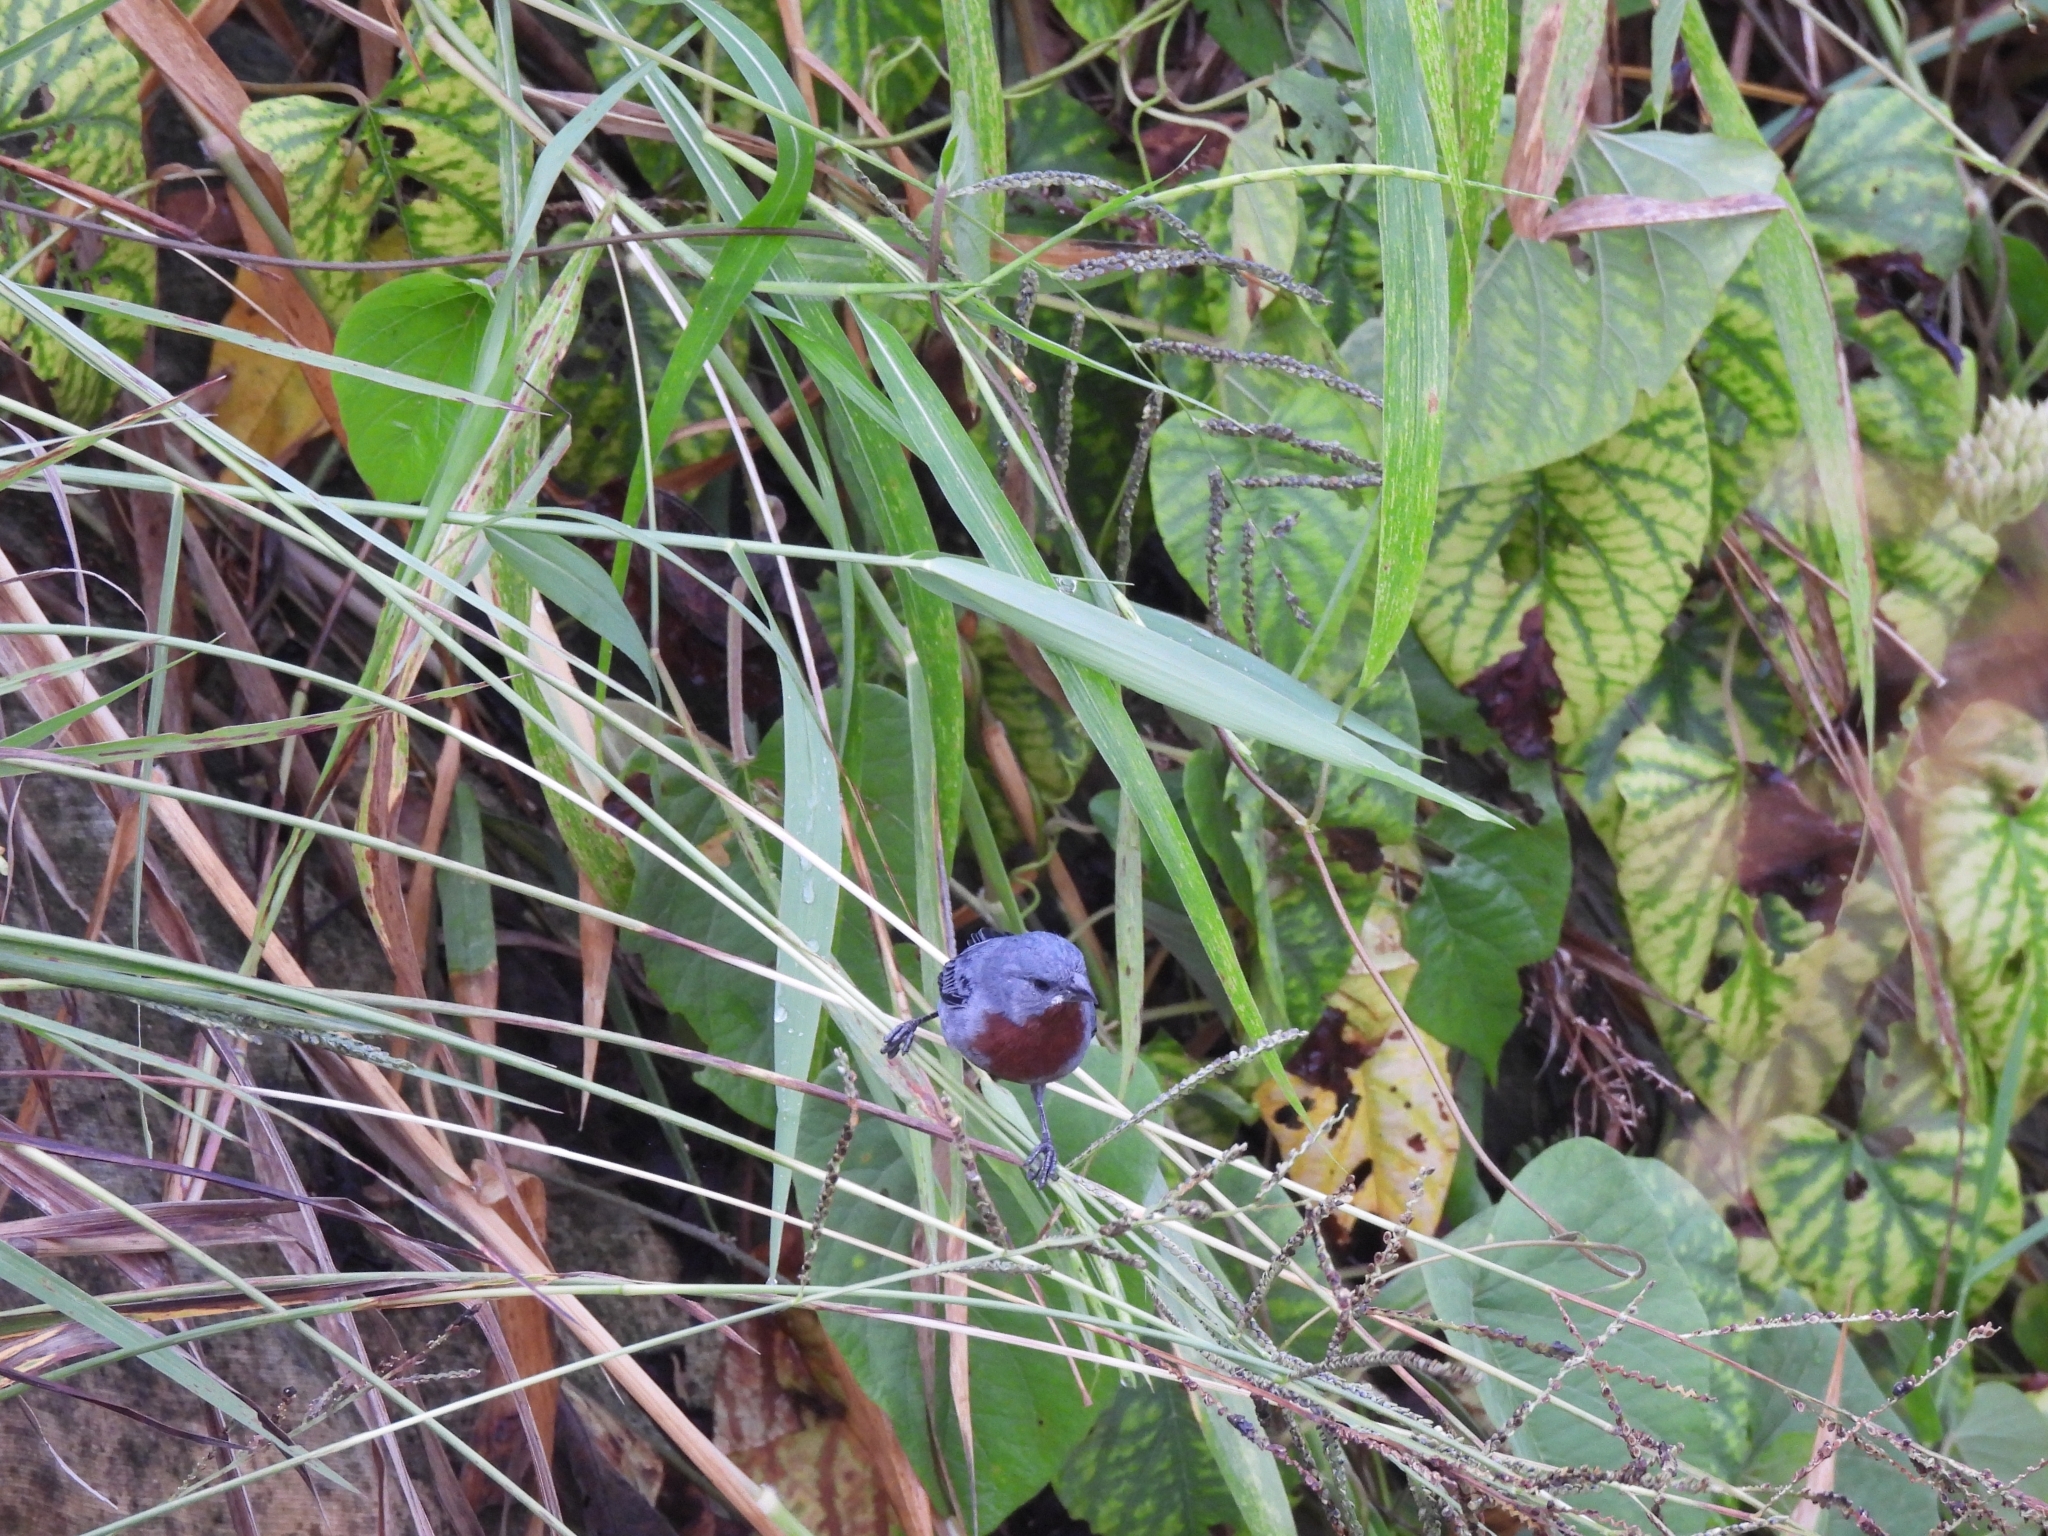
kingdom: Animalia
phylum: Chordata
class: Aves
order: Passeriformes
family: Thraupidae
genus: Sporophila
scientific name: Sporophila castaneiventris
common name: Chestnut-bellied seedeater
